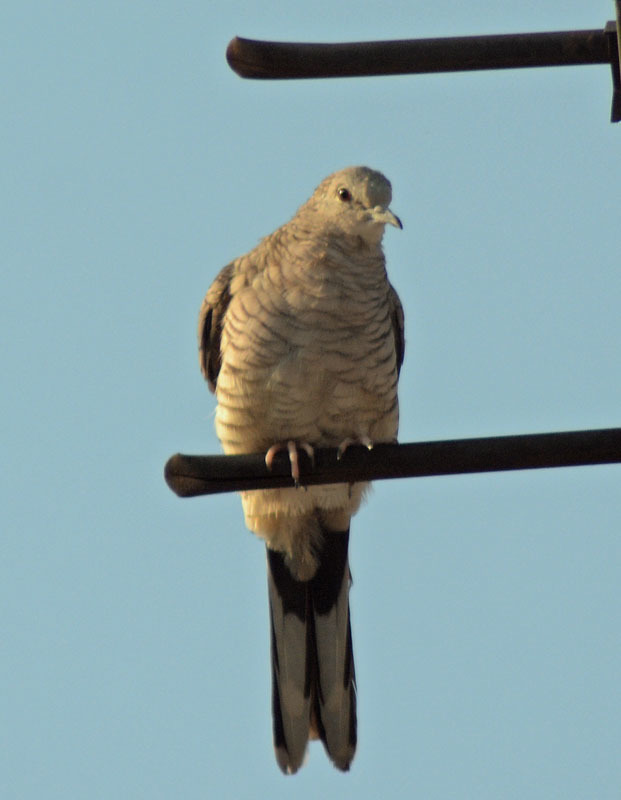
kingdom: Animalia
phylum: Chordata
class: Aves
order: Columbiformes
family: Columbidae
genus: Columbina
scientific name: Columbina inca
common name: Inca dove
